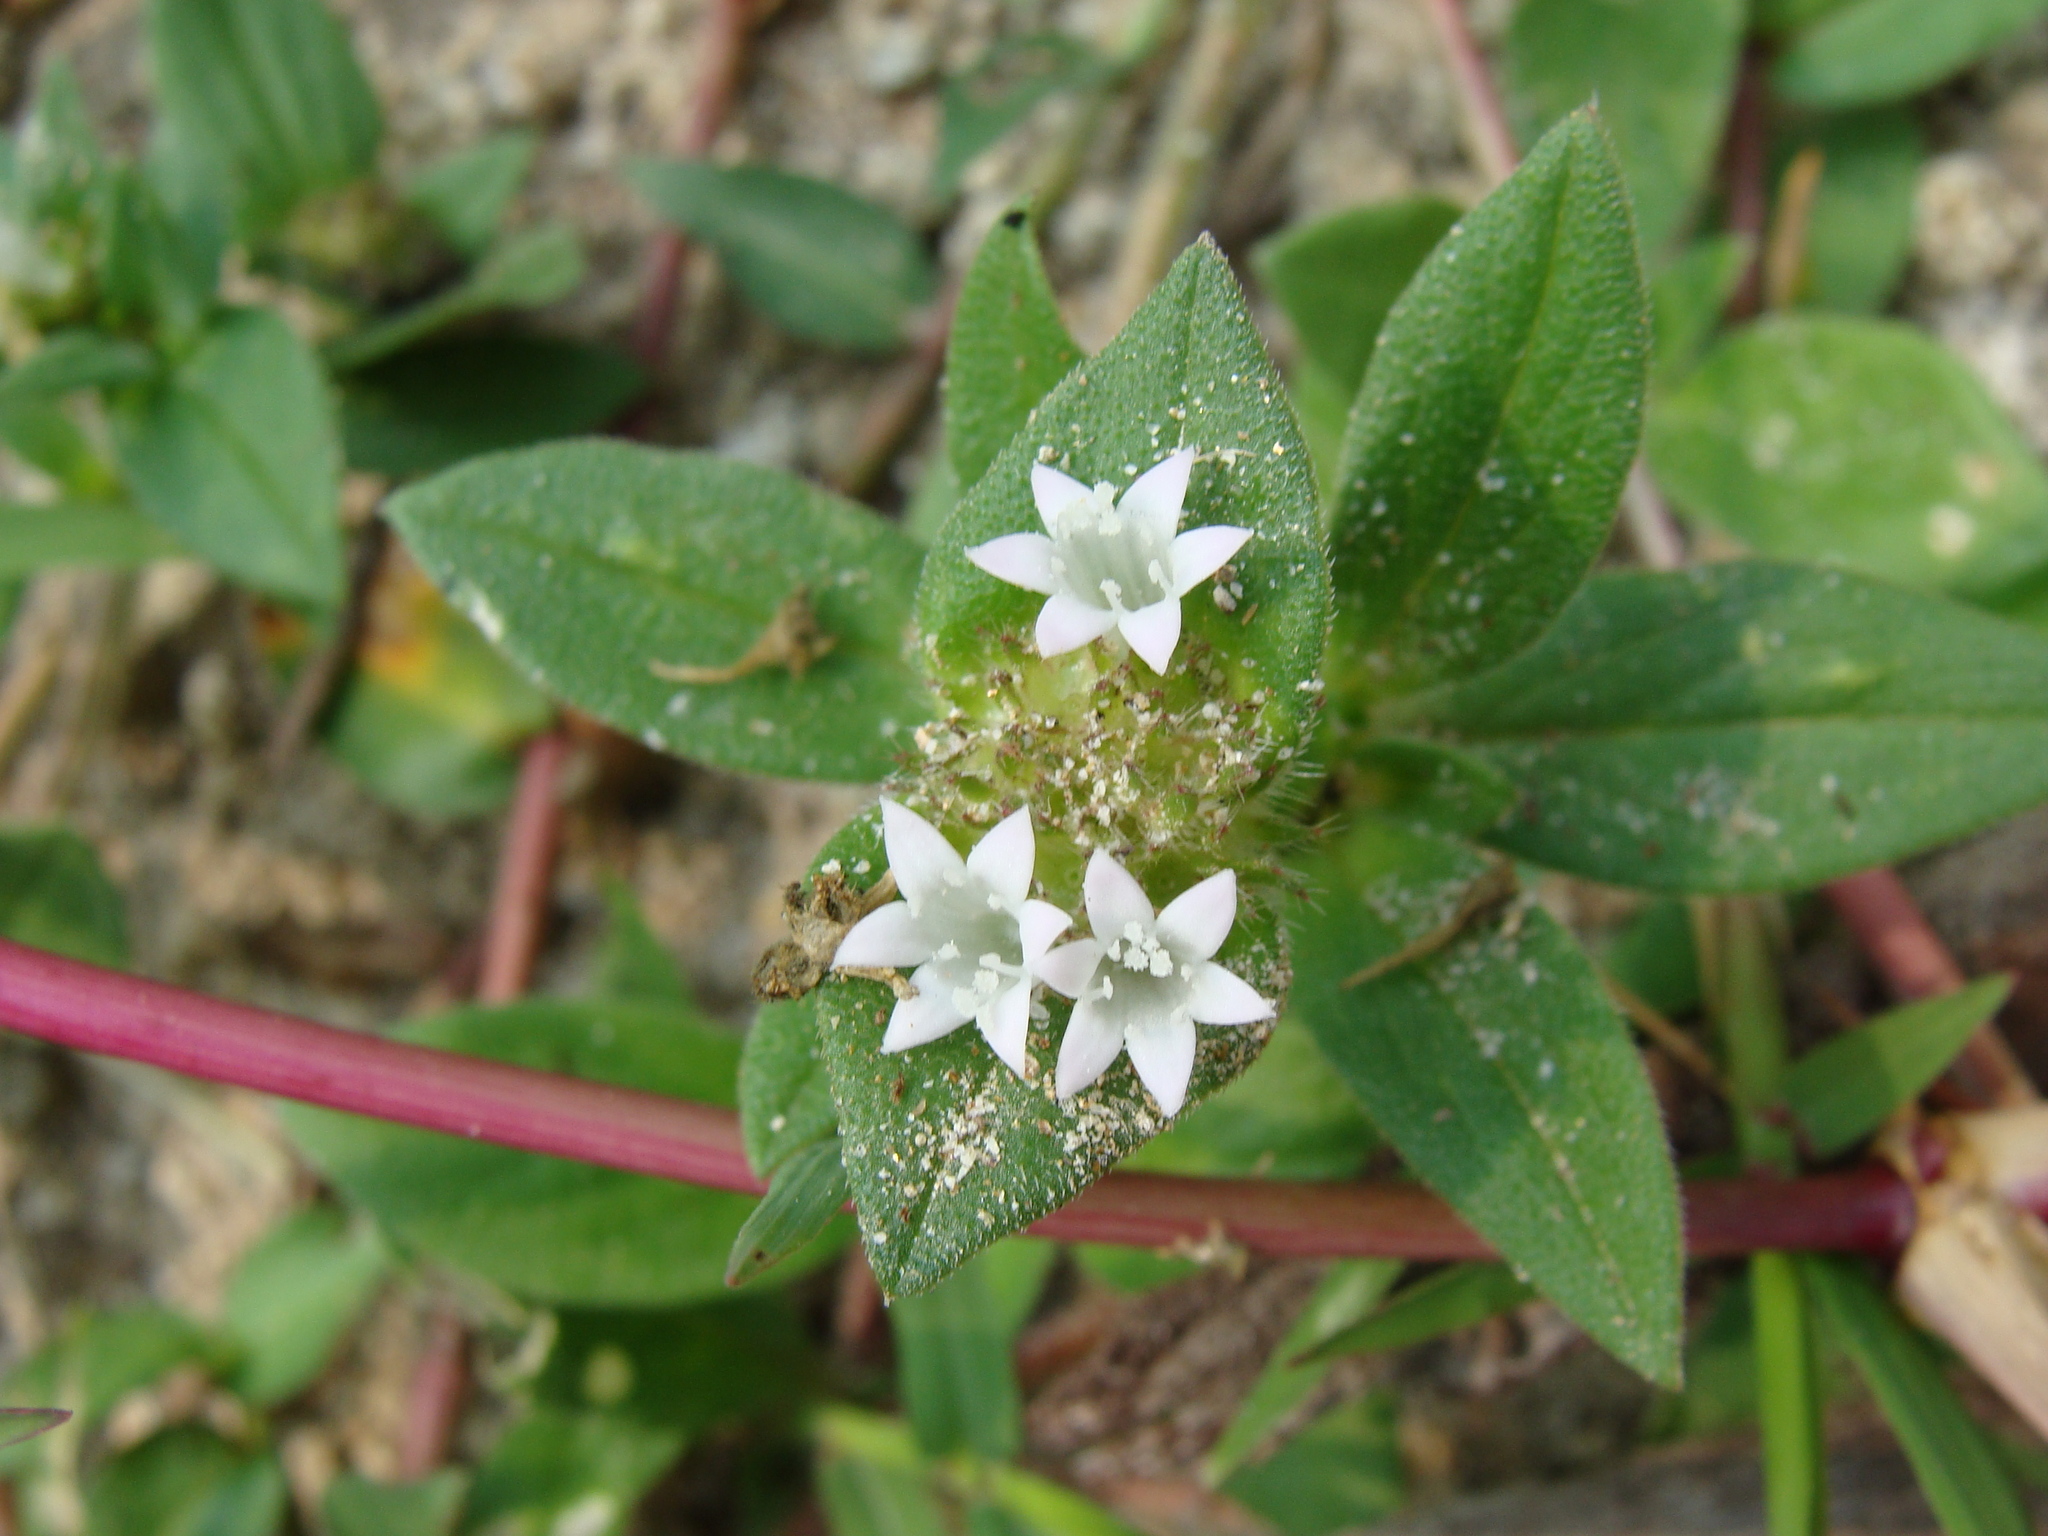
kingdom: Plantae
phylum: Tracheophyta
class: Magnoliopsida
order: Gentianales
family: Rubiaceae
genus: Richardia
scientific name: Richardia scabra
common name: Rough mexican clover
